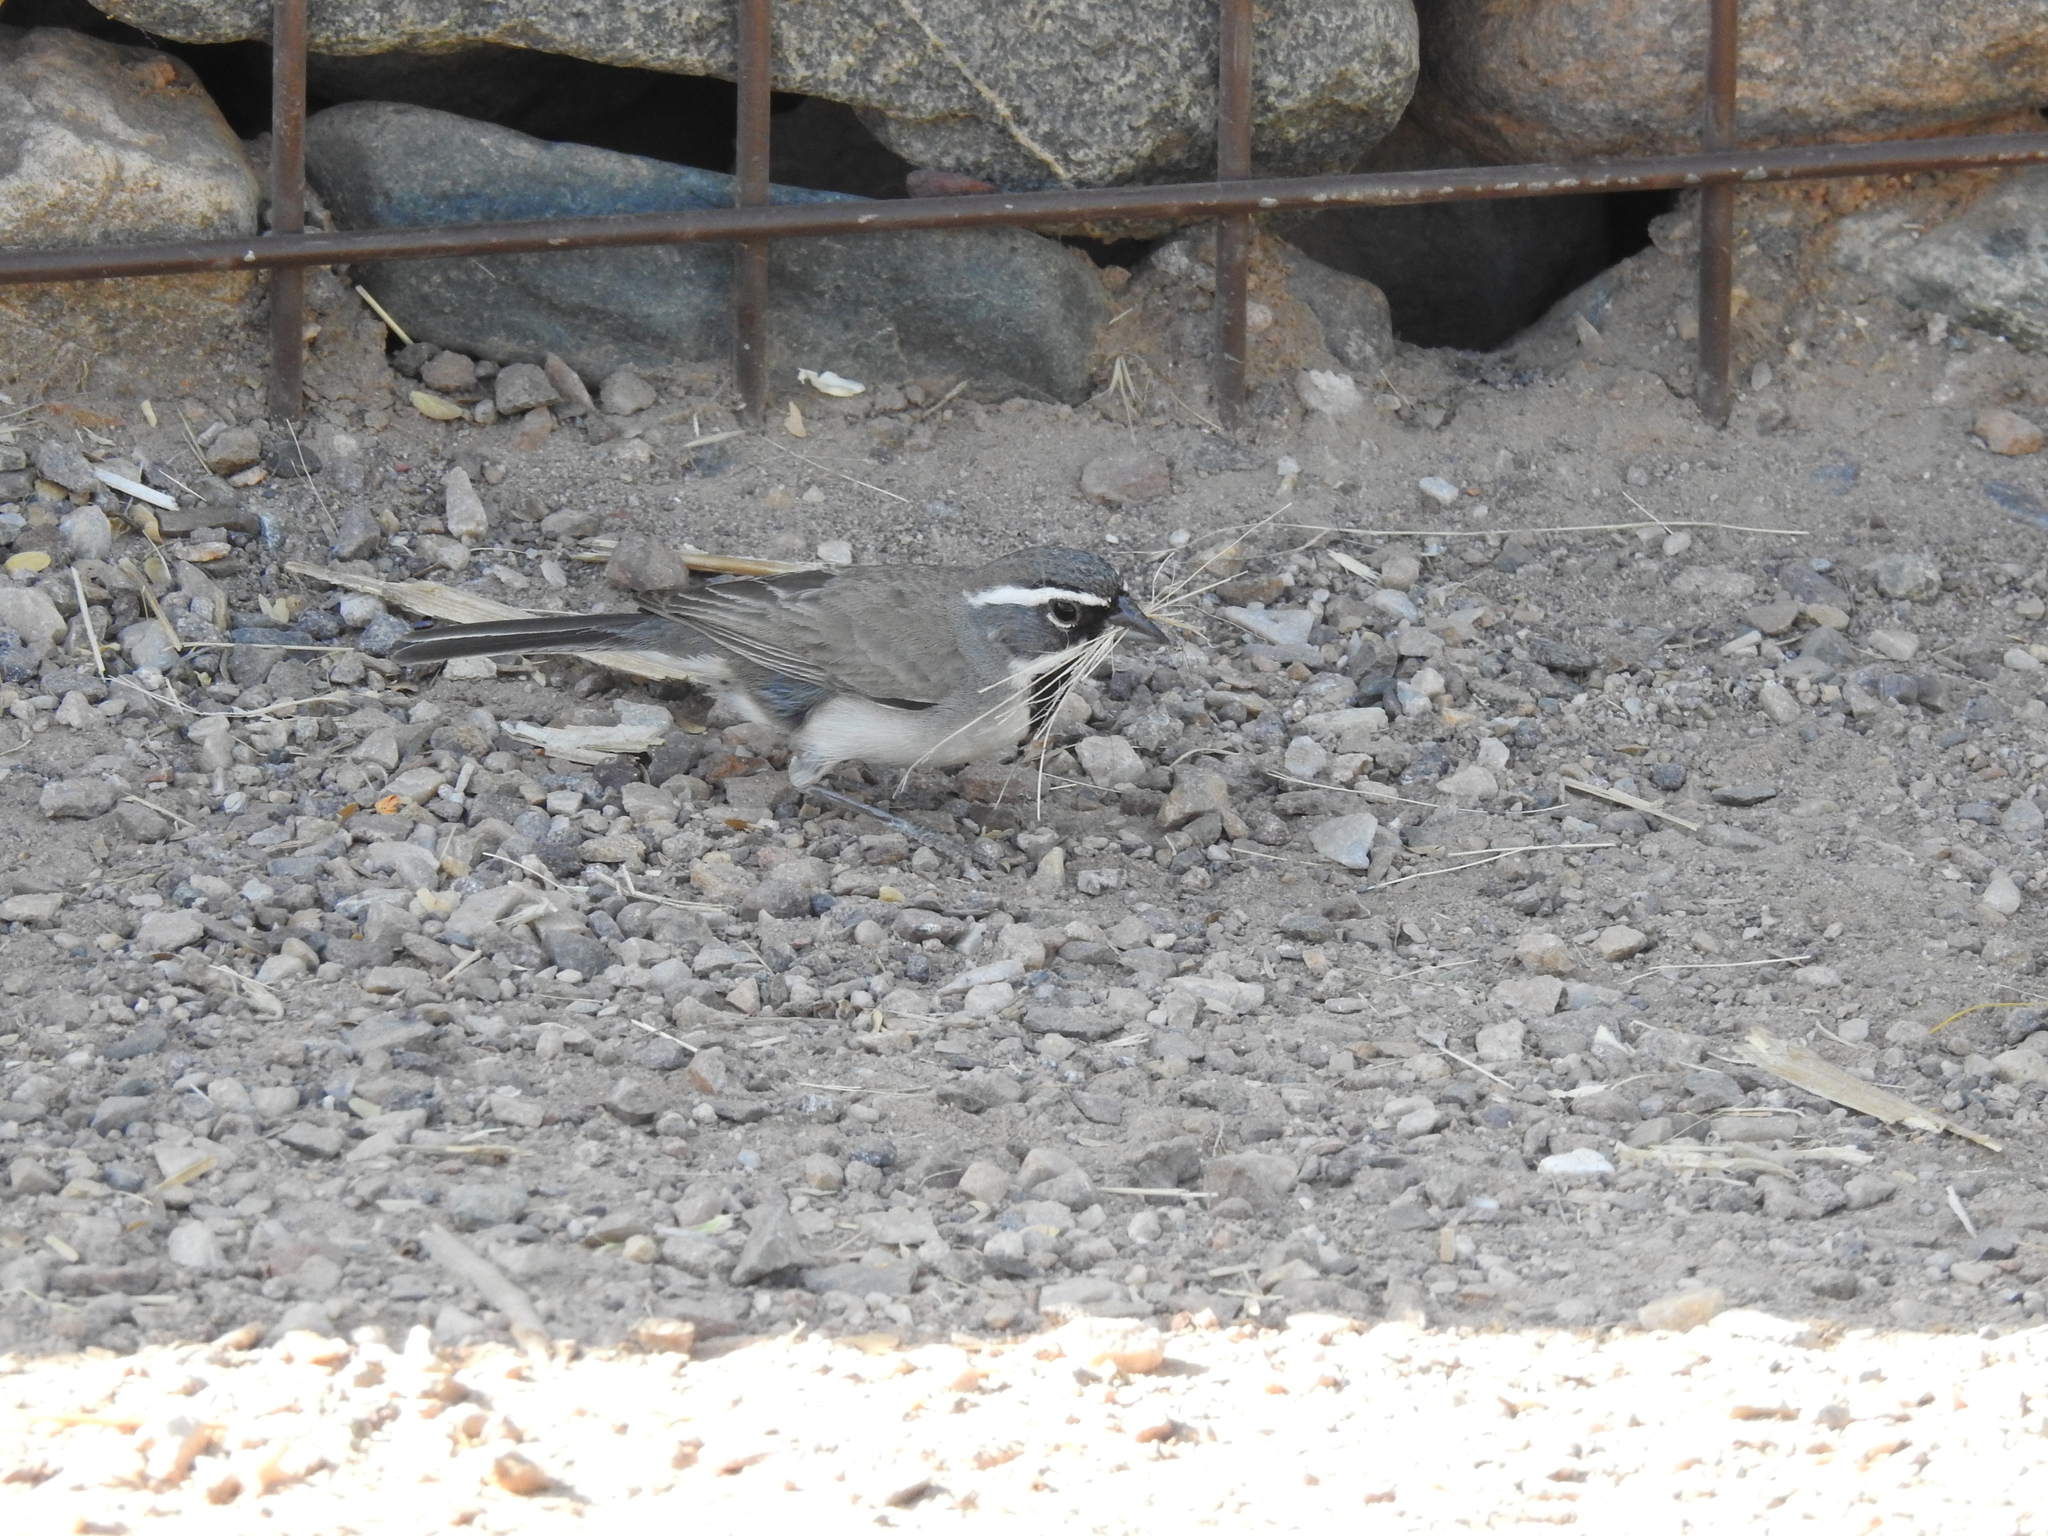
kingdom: Animalia
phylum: Chordata
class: Aves
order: Passeriformes
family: Passerellidae
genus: Amphispiza
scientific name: Amphispiza bilineata
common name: Black-throated sparrow
